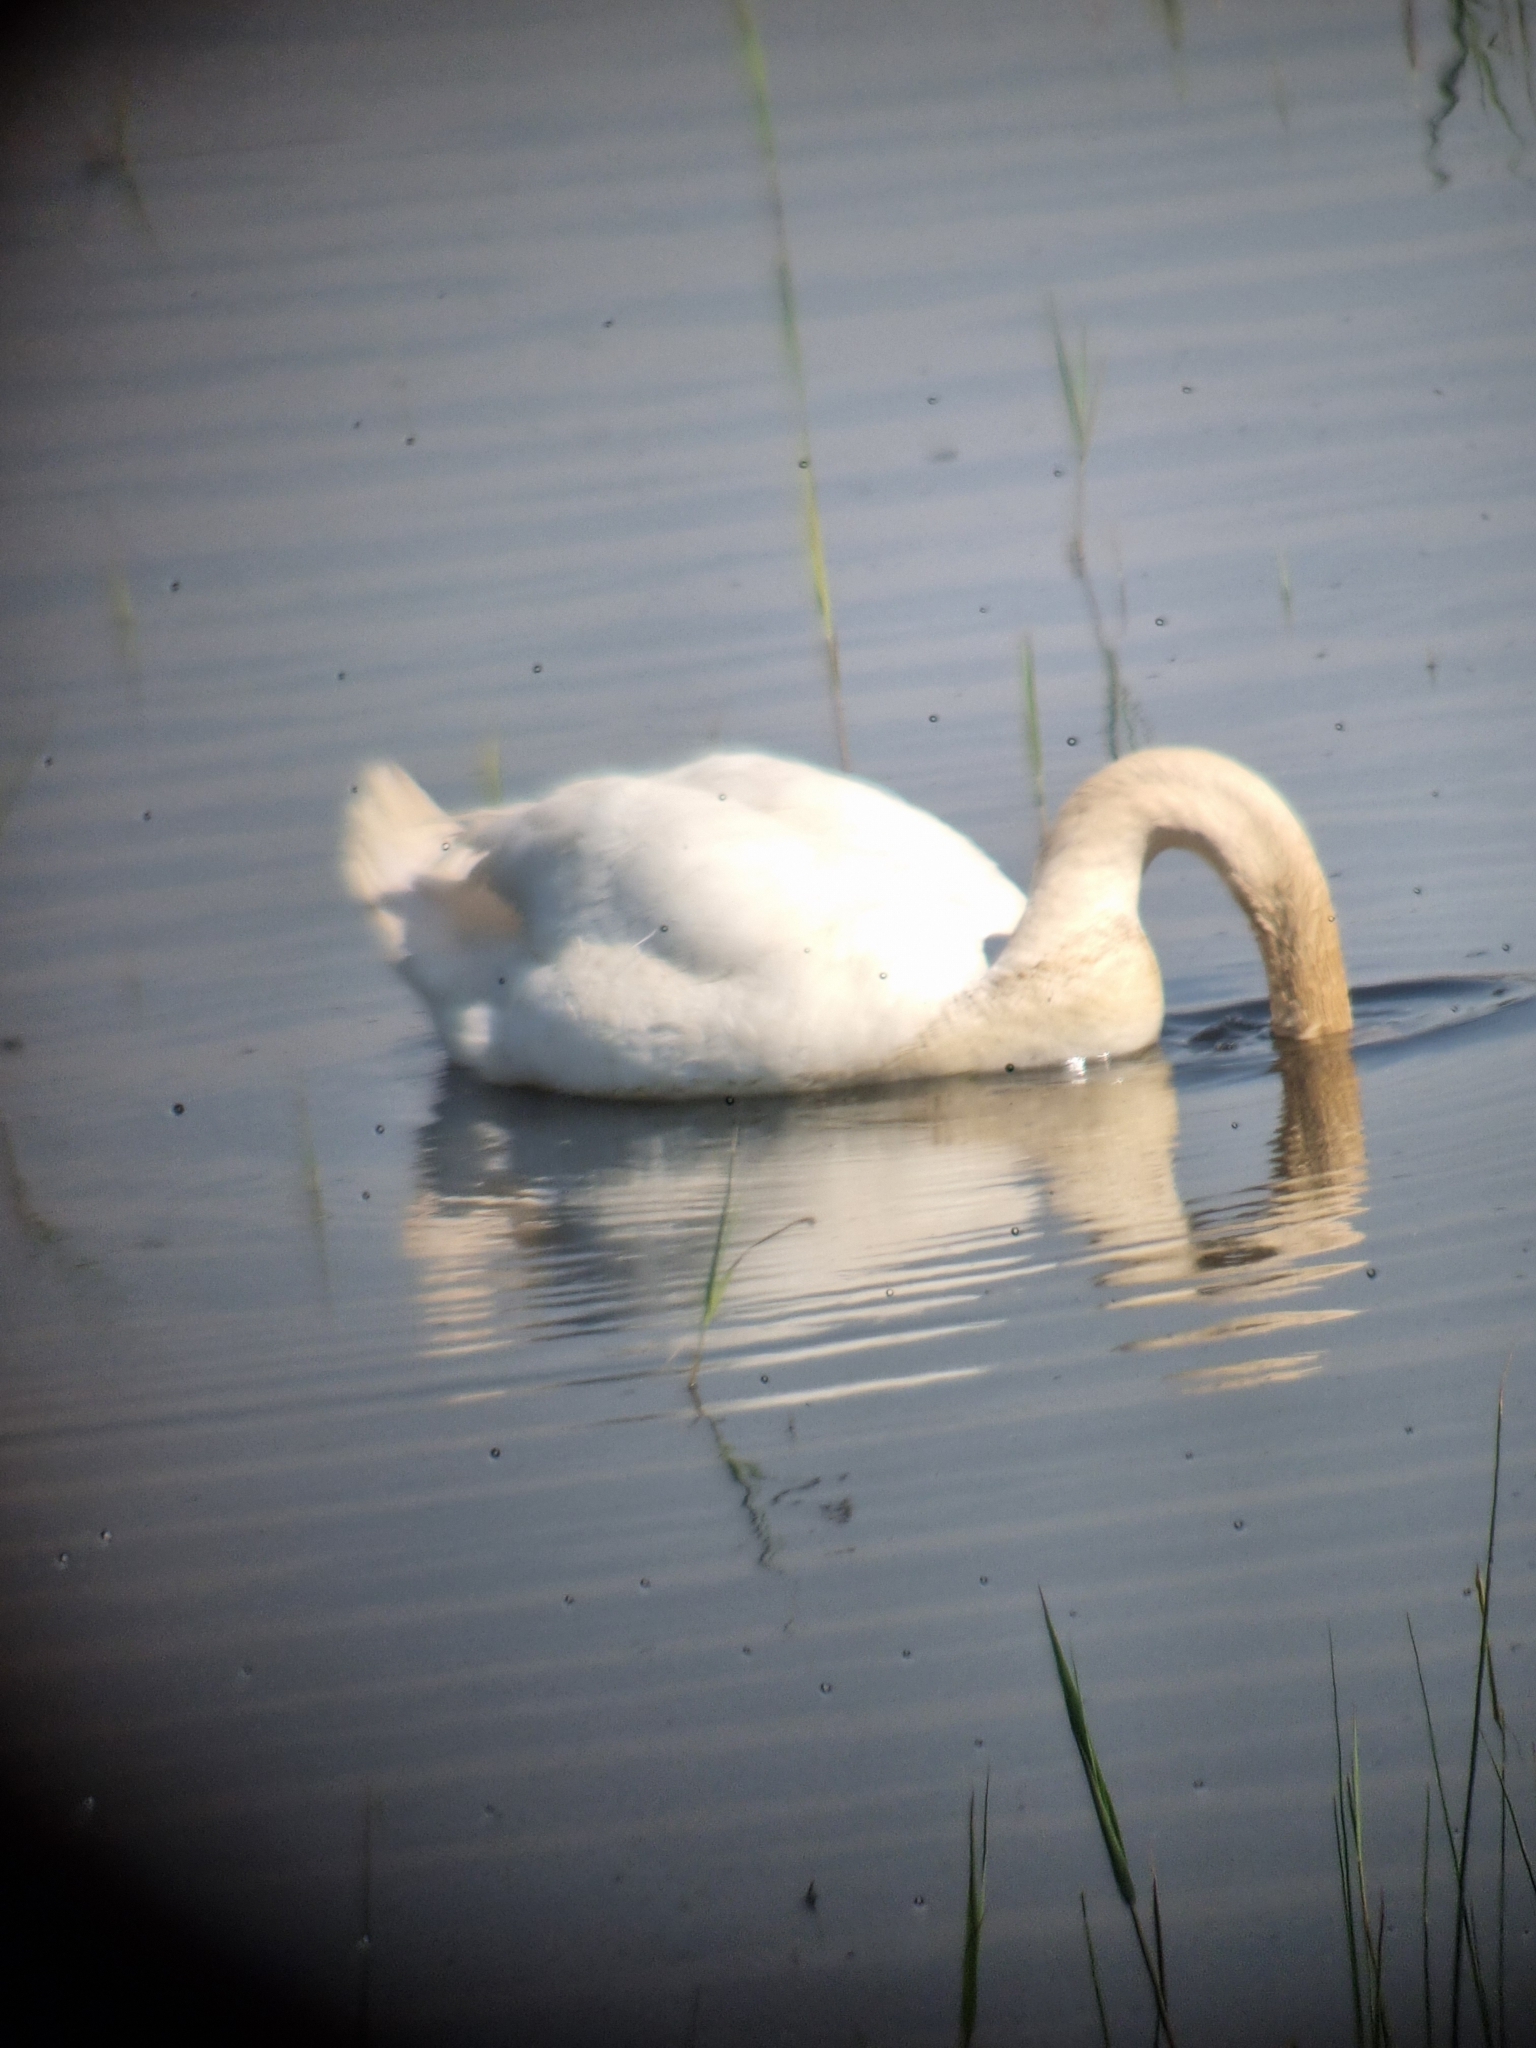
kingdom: Animalia
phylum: Chordata
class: Aves
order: Anseriformes
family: Anatidae
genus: Cygnus
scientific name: Cygnus olor
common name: Mute swan
